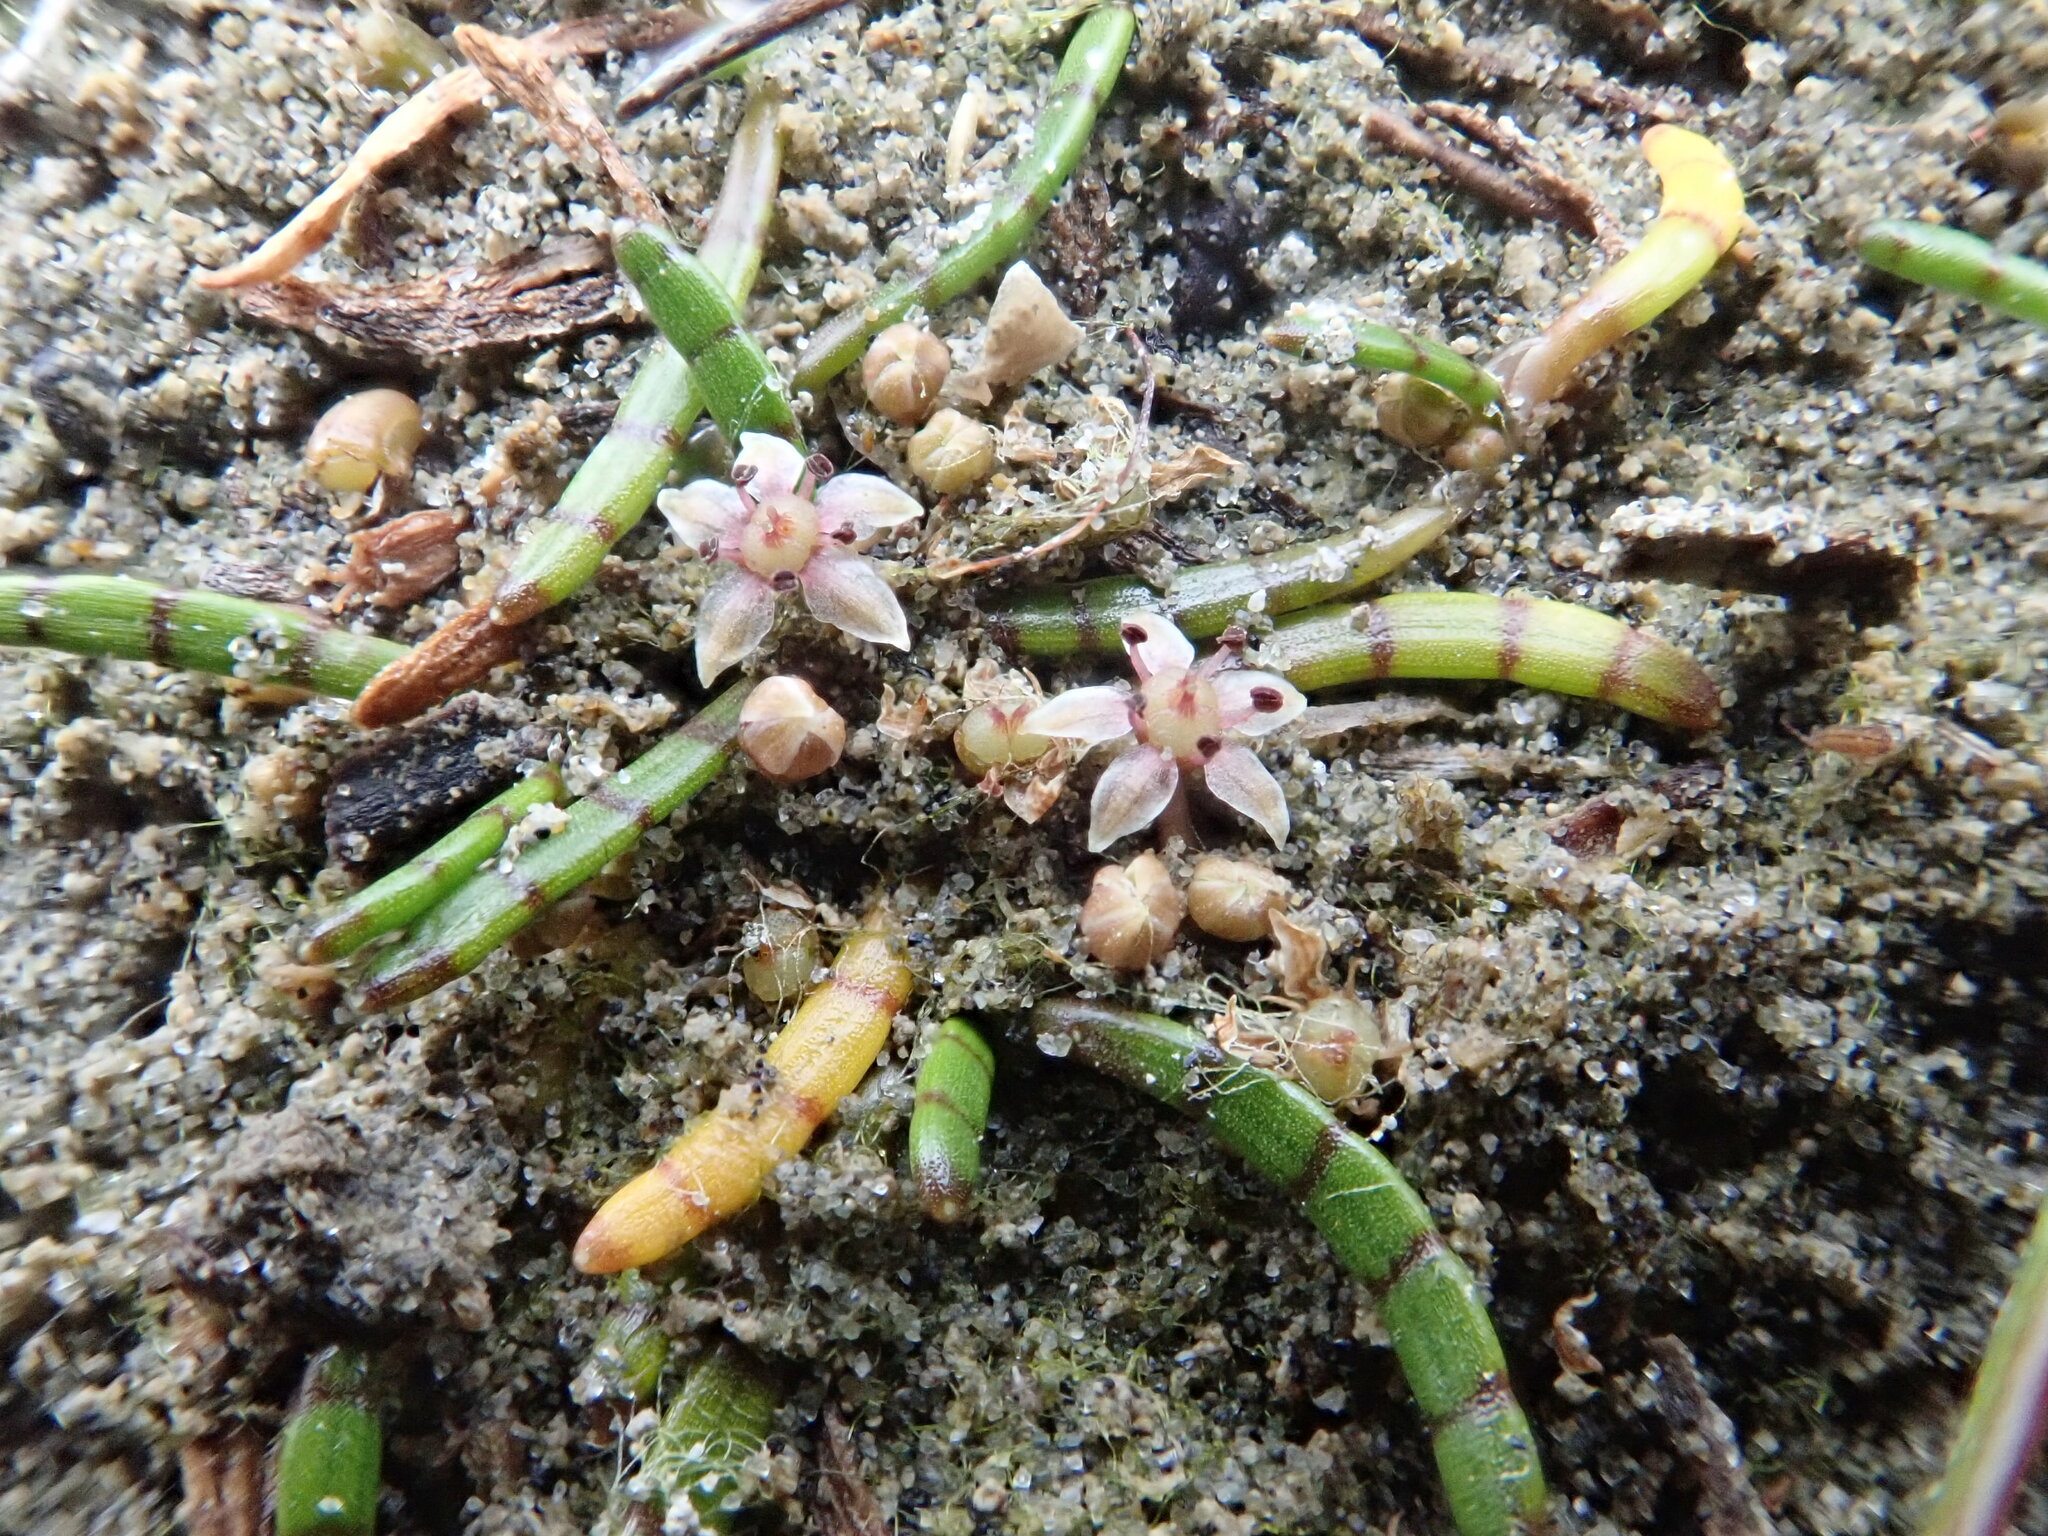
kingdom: Plantae
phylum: Tracheophyta
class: Magnoliopsida
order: Apiales
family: Apiaceae
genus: Lilaeopsis
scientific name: Lilaeopsis novae-zelandiae
